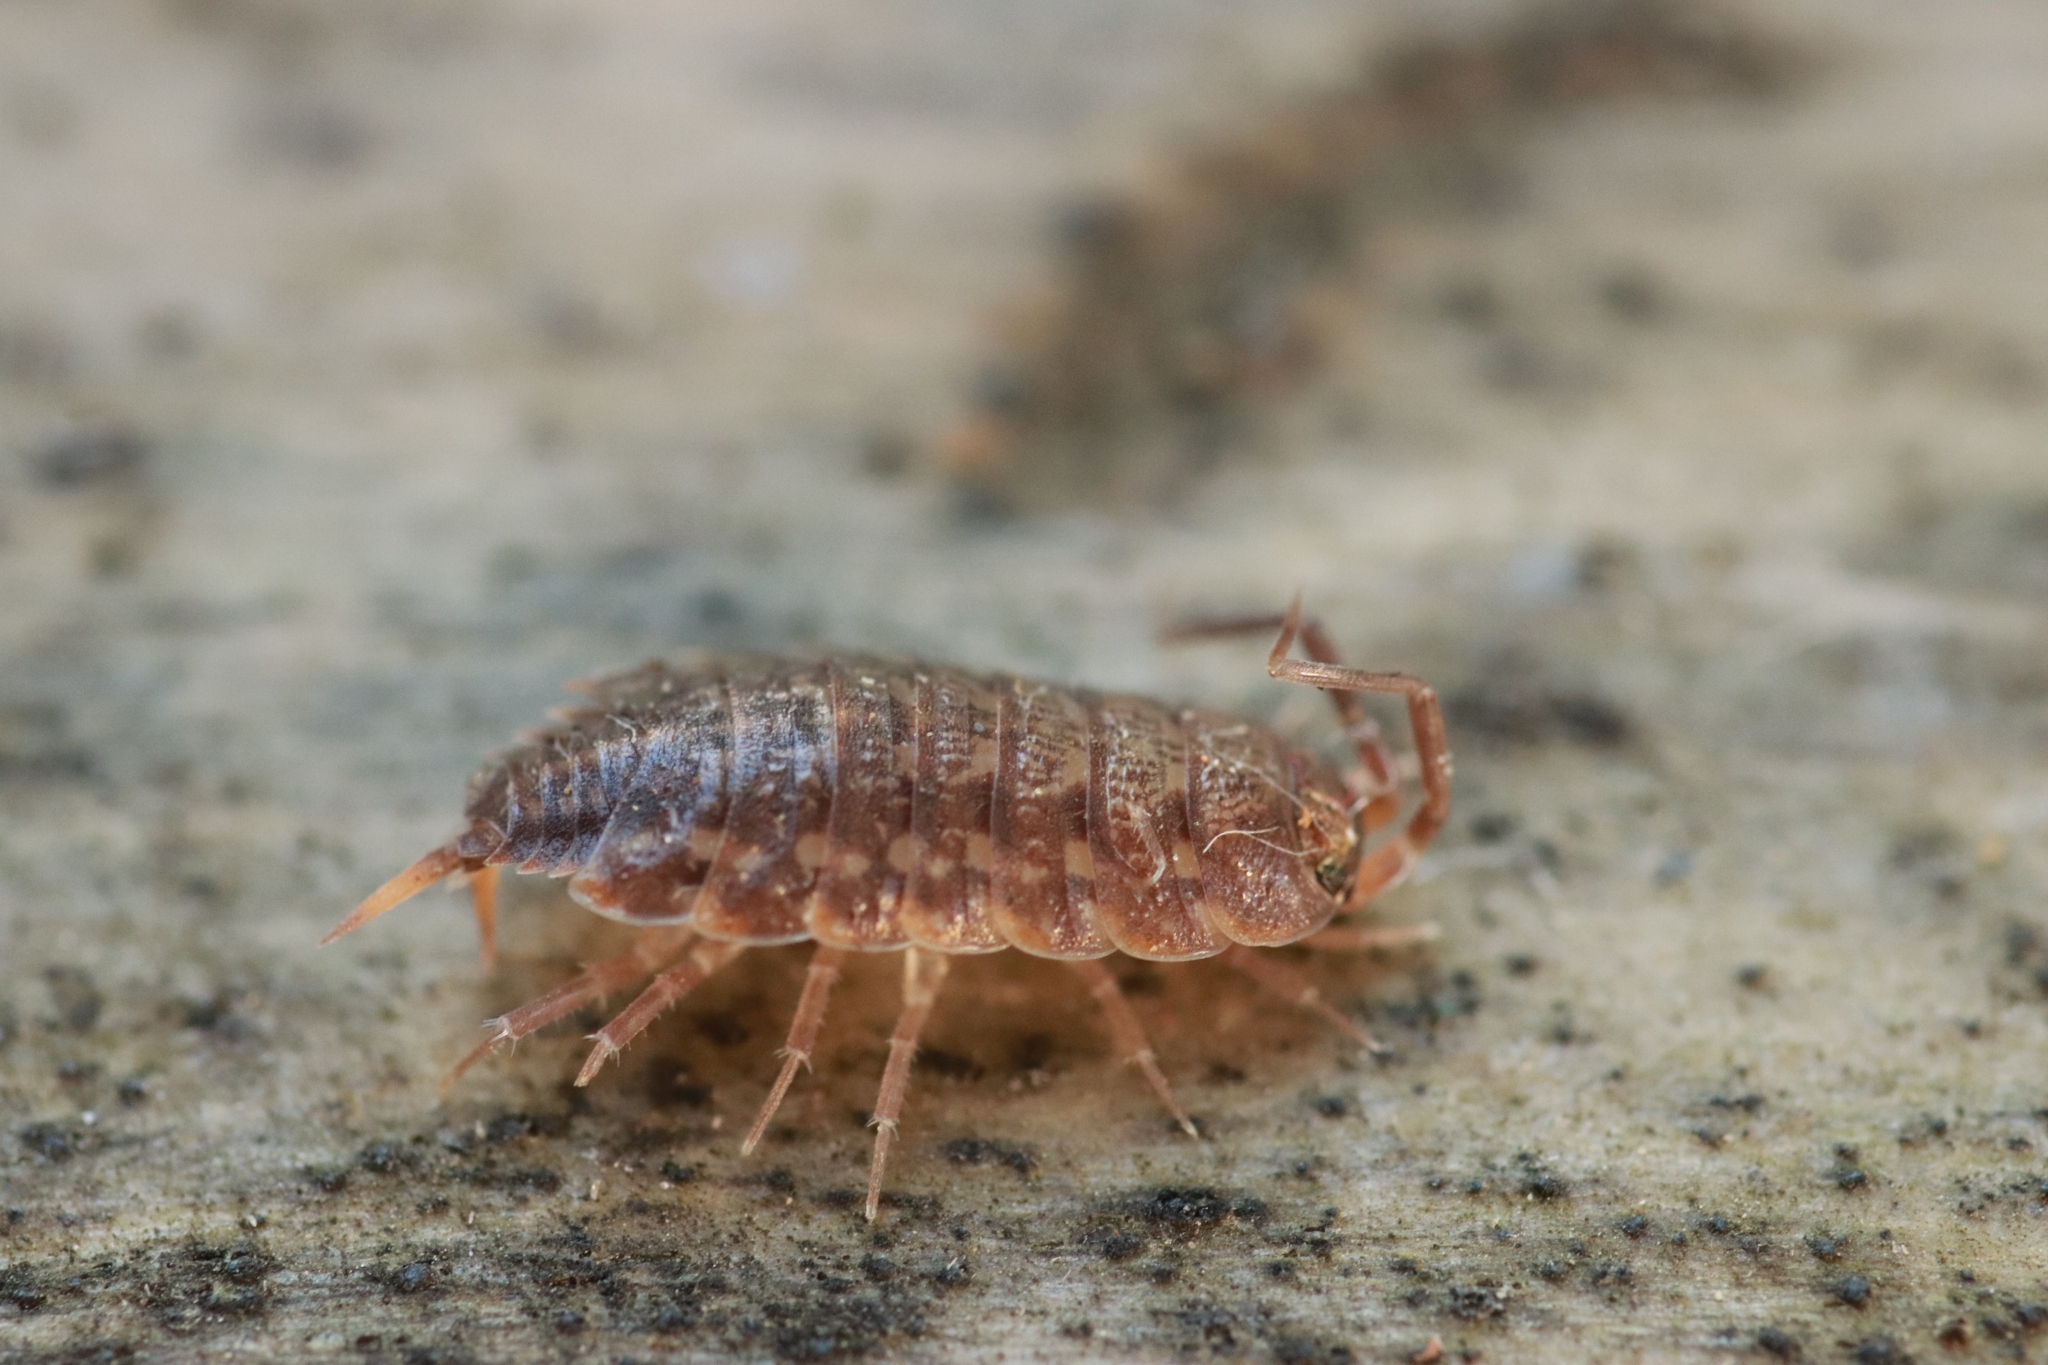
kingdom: Animalia
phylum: Arthropoda
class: Malacostraca
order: Isopoda
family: Agnaridae
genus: Orthometopon
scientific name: Orthometopon planum
